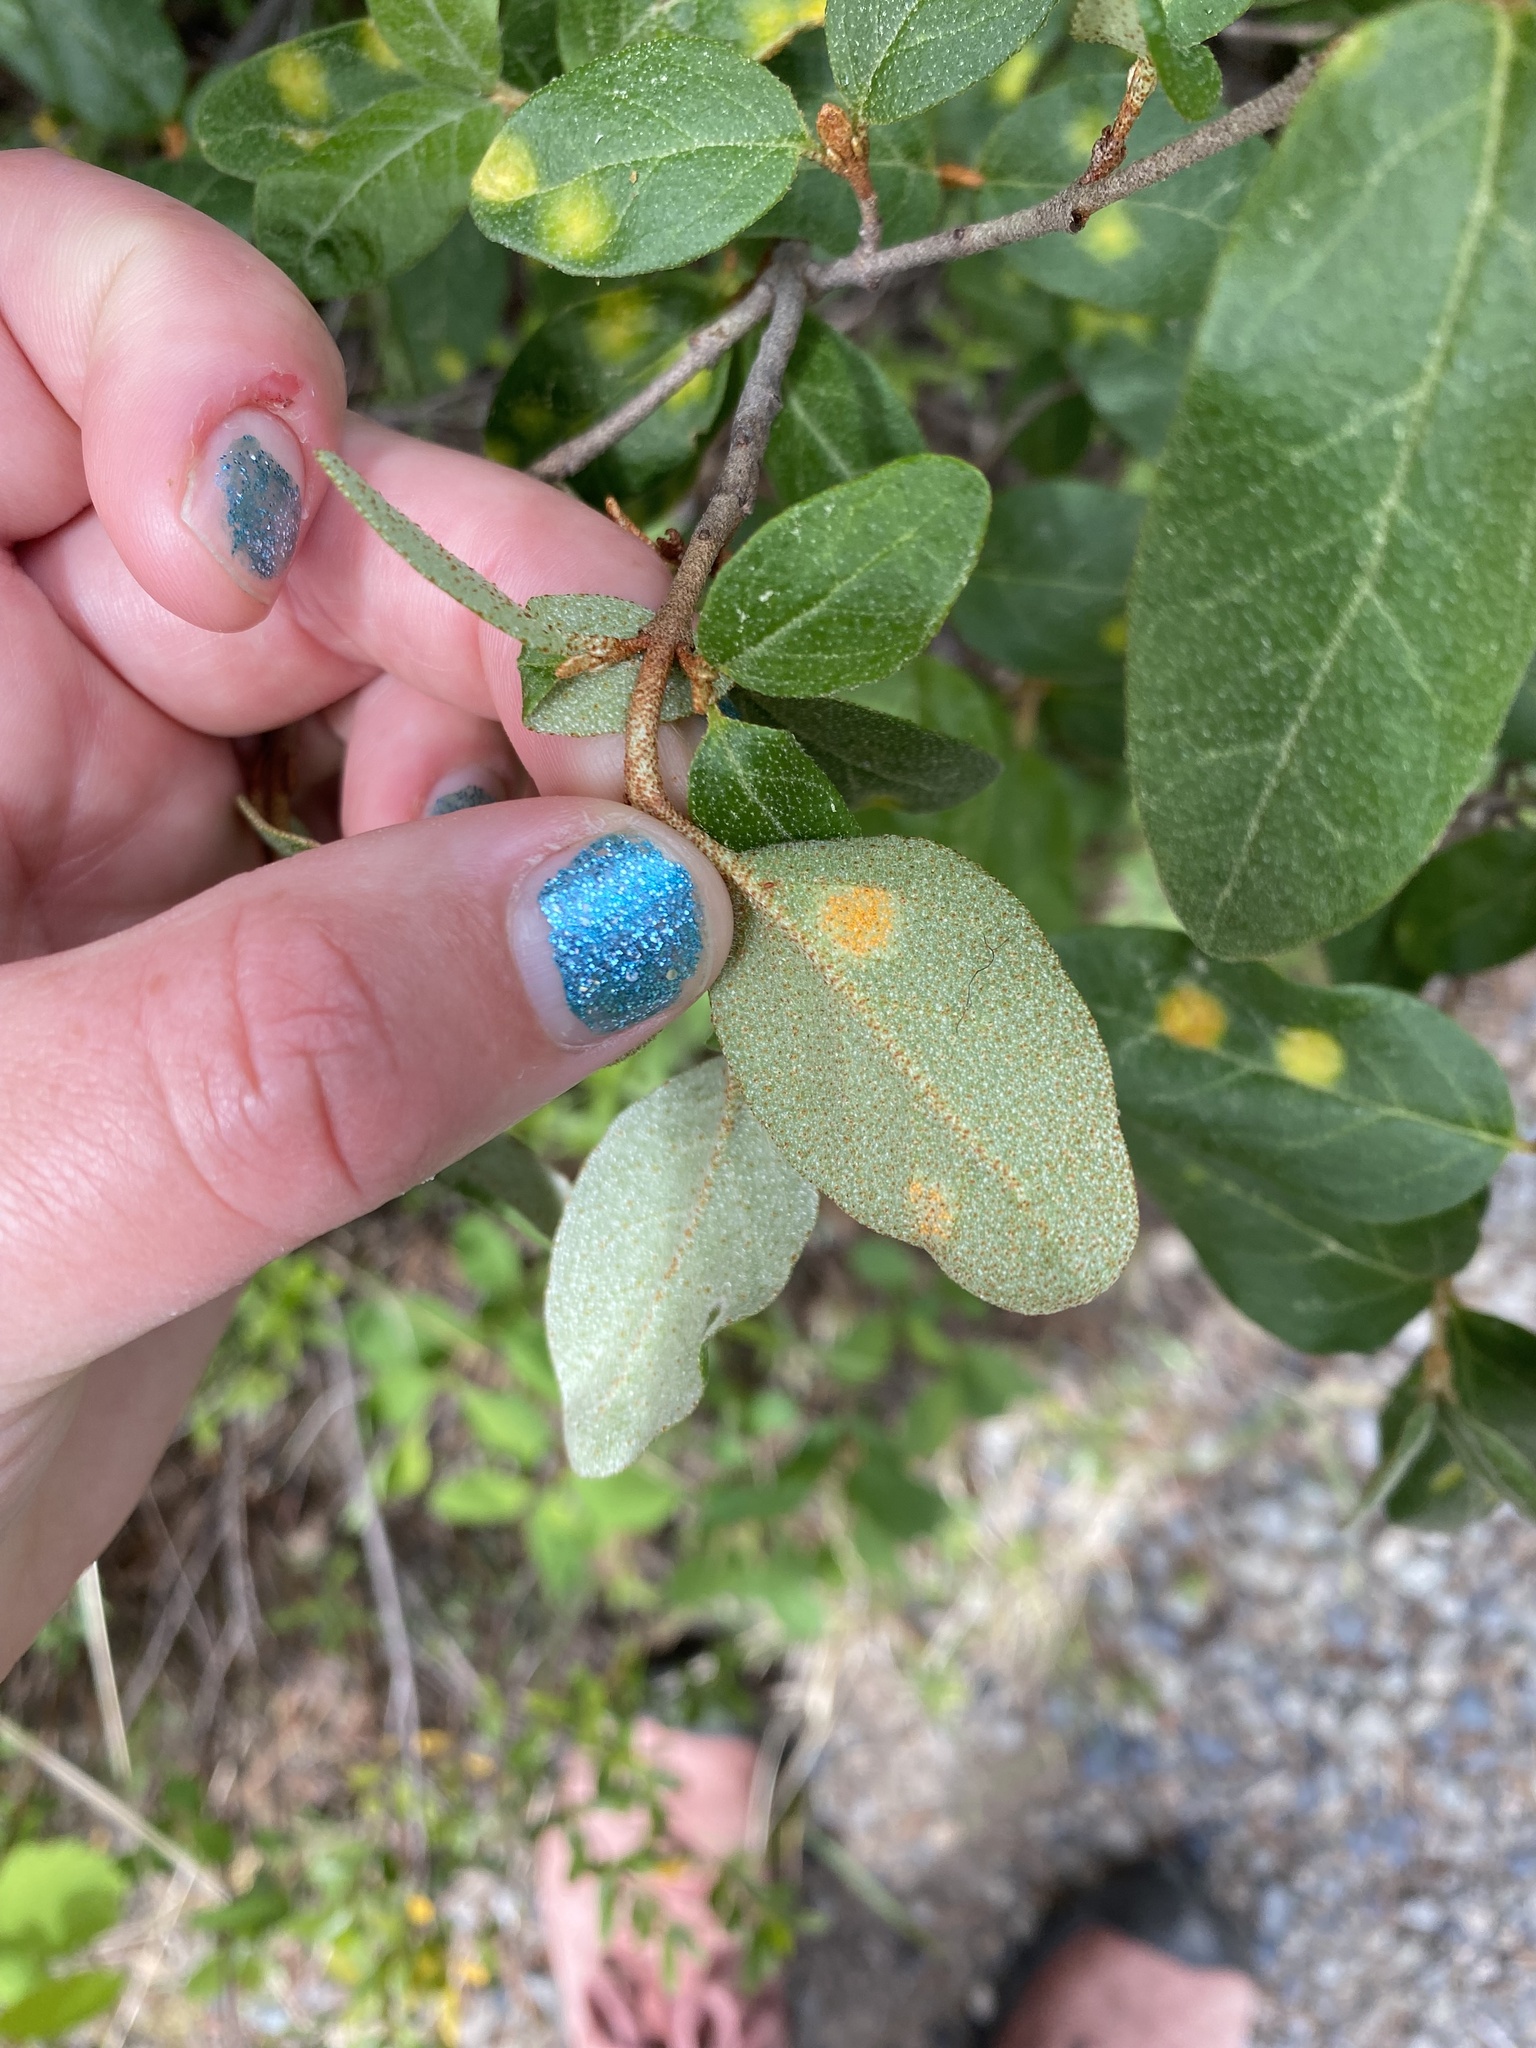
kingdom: Plantae
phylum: Tracheophyta
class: Magnoliopsida
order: Rosales
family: Elaeagnaceae
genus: Shepherdia
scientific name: Shepherdia canadensis
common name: Soapberry
